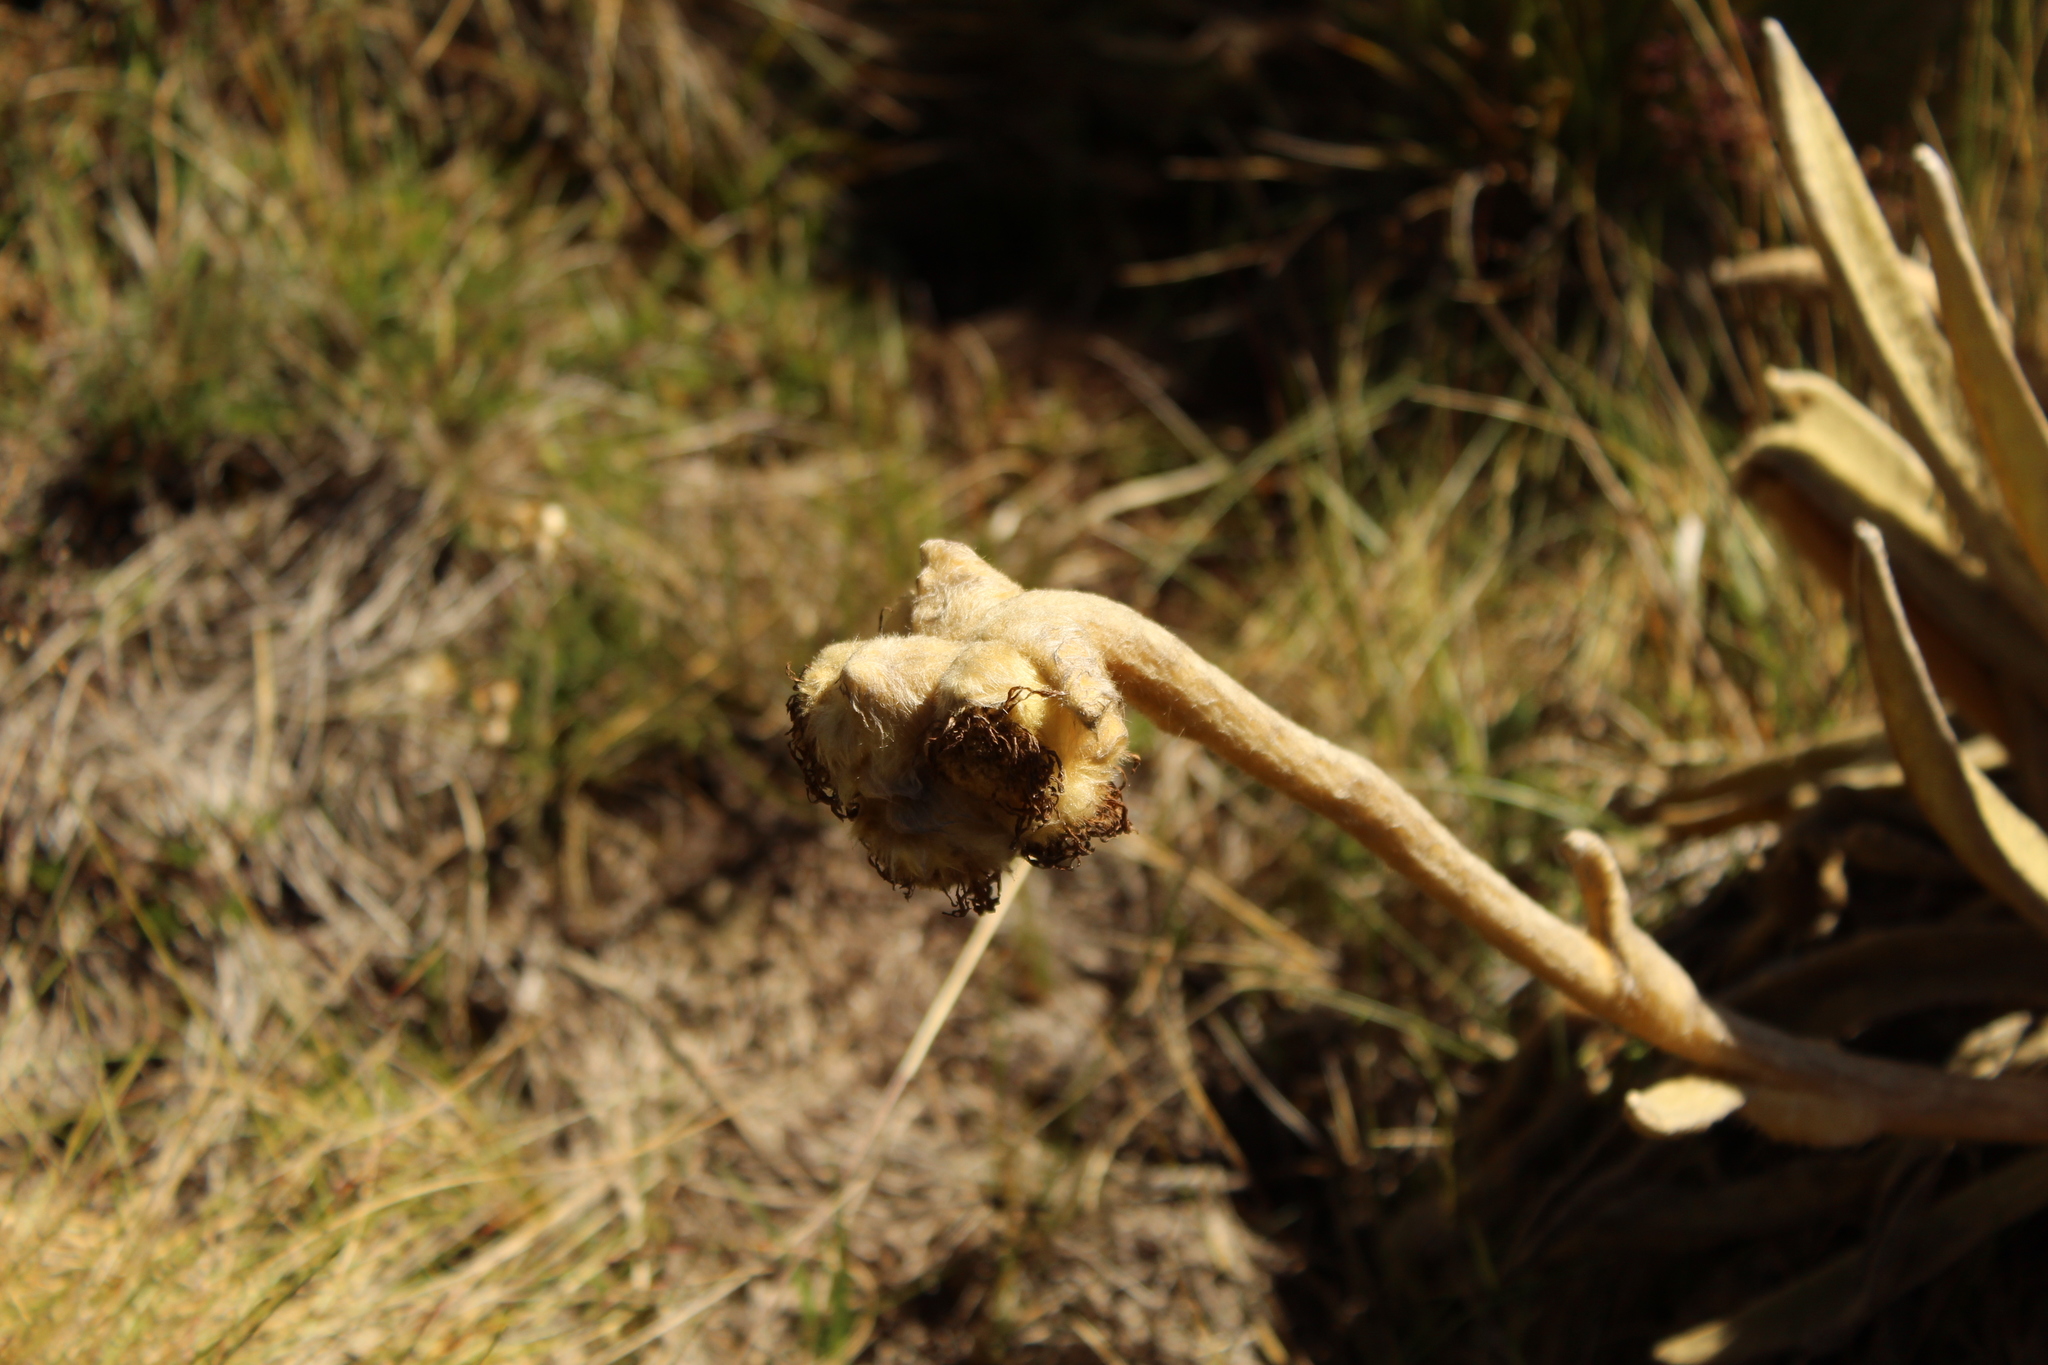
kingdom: Plantae
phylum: Tracheophyta
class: Magnoliopsida
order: Asterales
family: Asteraceae
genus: Espeletia
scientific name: Espeletia congestiflora
